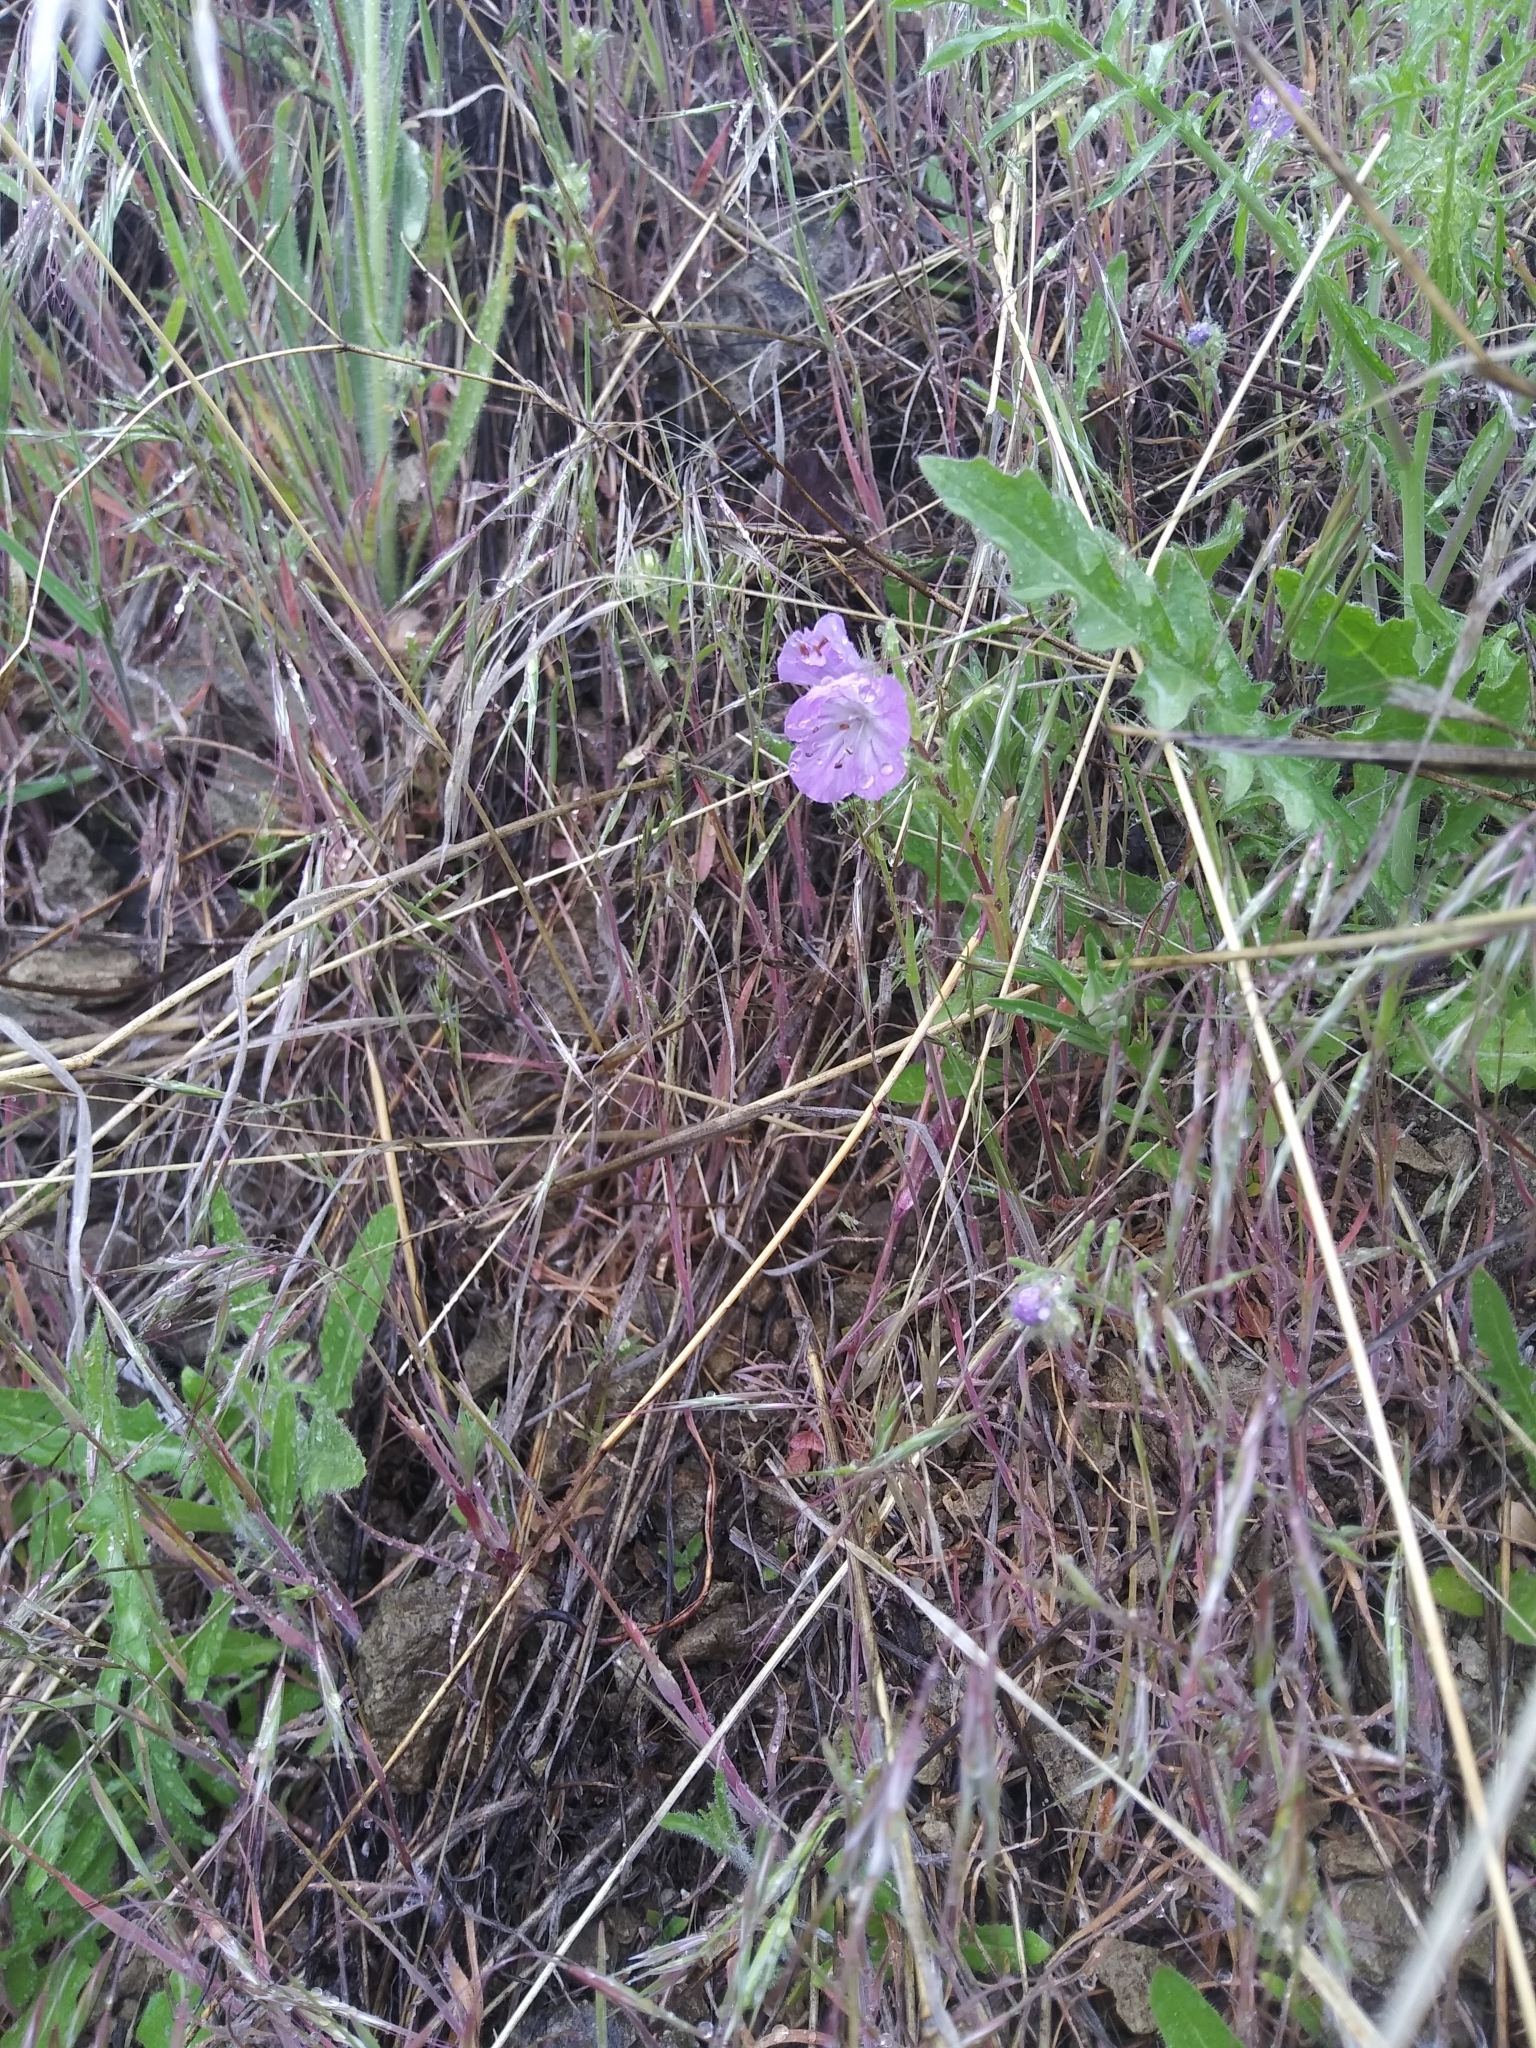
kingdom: Plantae
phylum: Tracheophyta
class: Magnoliopsida
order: Boraginales
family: Hydrophyllaceae
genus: Phacelia
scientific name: Phacelia linearis
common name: Linear-leaved phacelia
